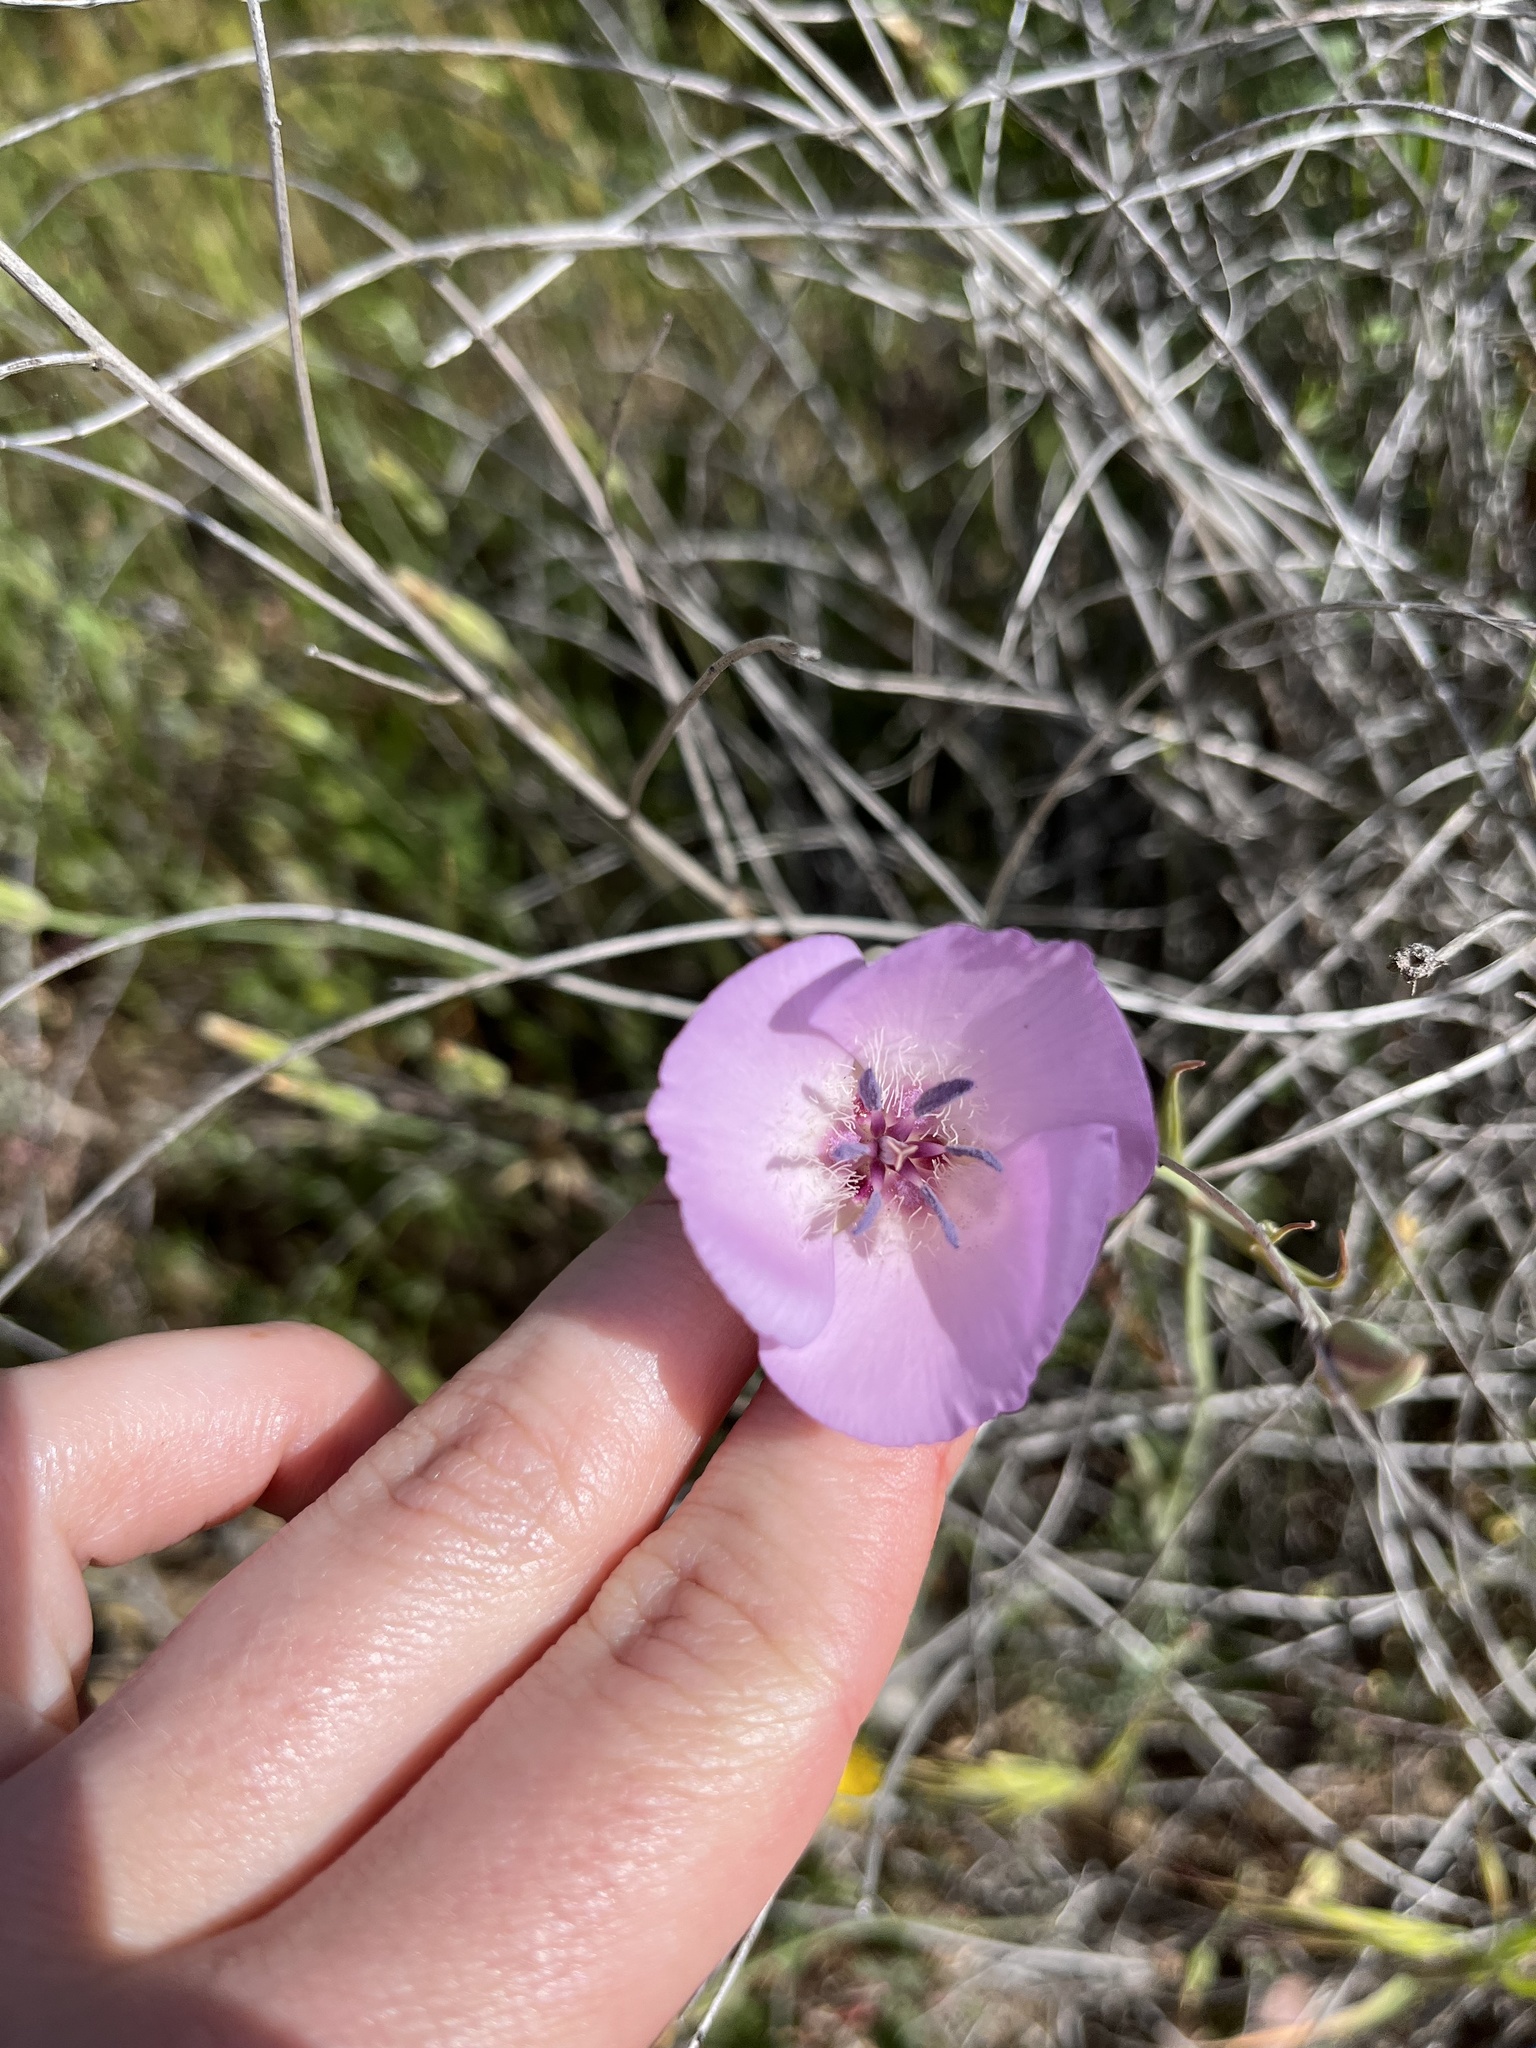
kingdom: Plantae
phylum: Tracheophyta
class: Liliopsida
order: Liliales
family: Liliaceae
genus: Calochortus
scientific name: Calochortus splendens
